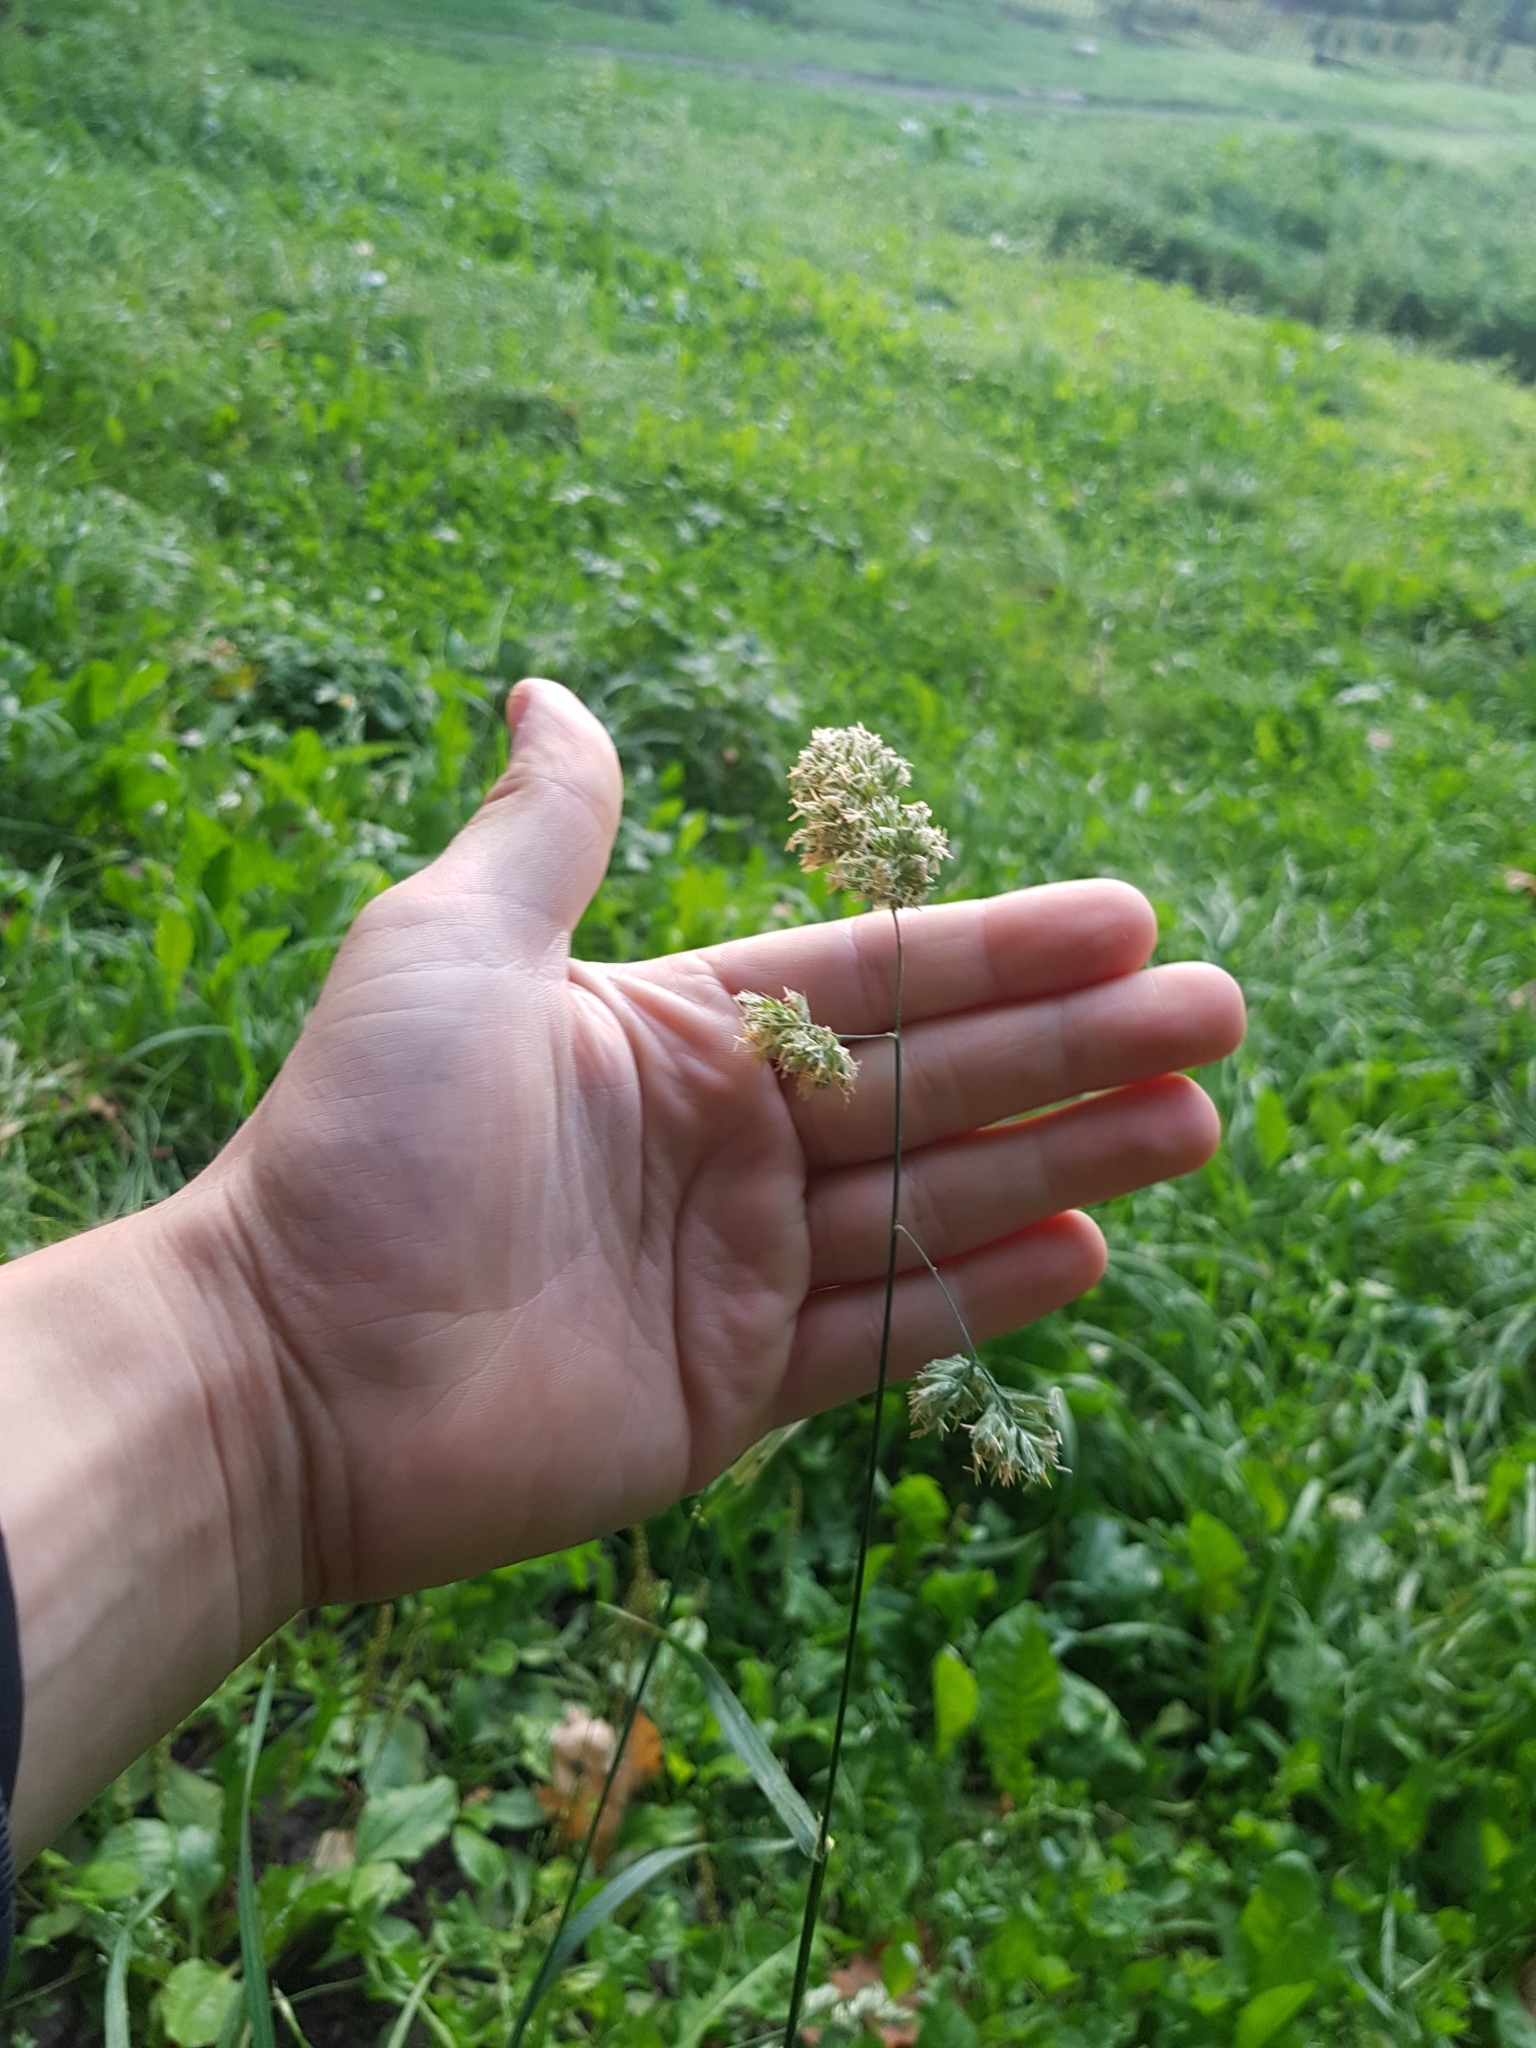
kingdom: Plantae
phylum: Tracheophyta
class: Liliopsida
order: Poales
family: Poaceae
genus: Dactylis
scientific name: Dactylis glomerata
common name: Orchardgrass
